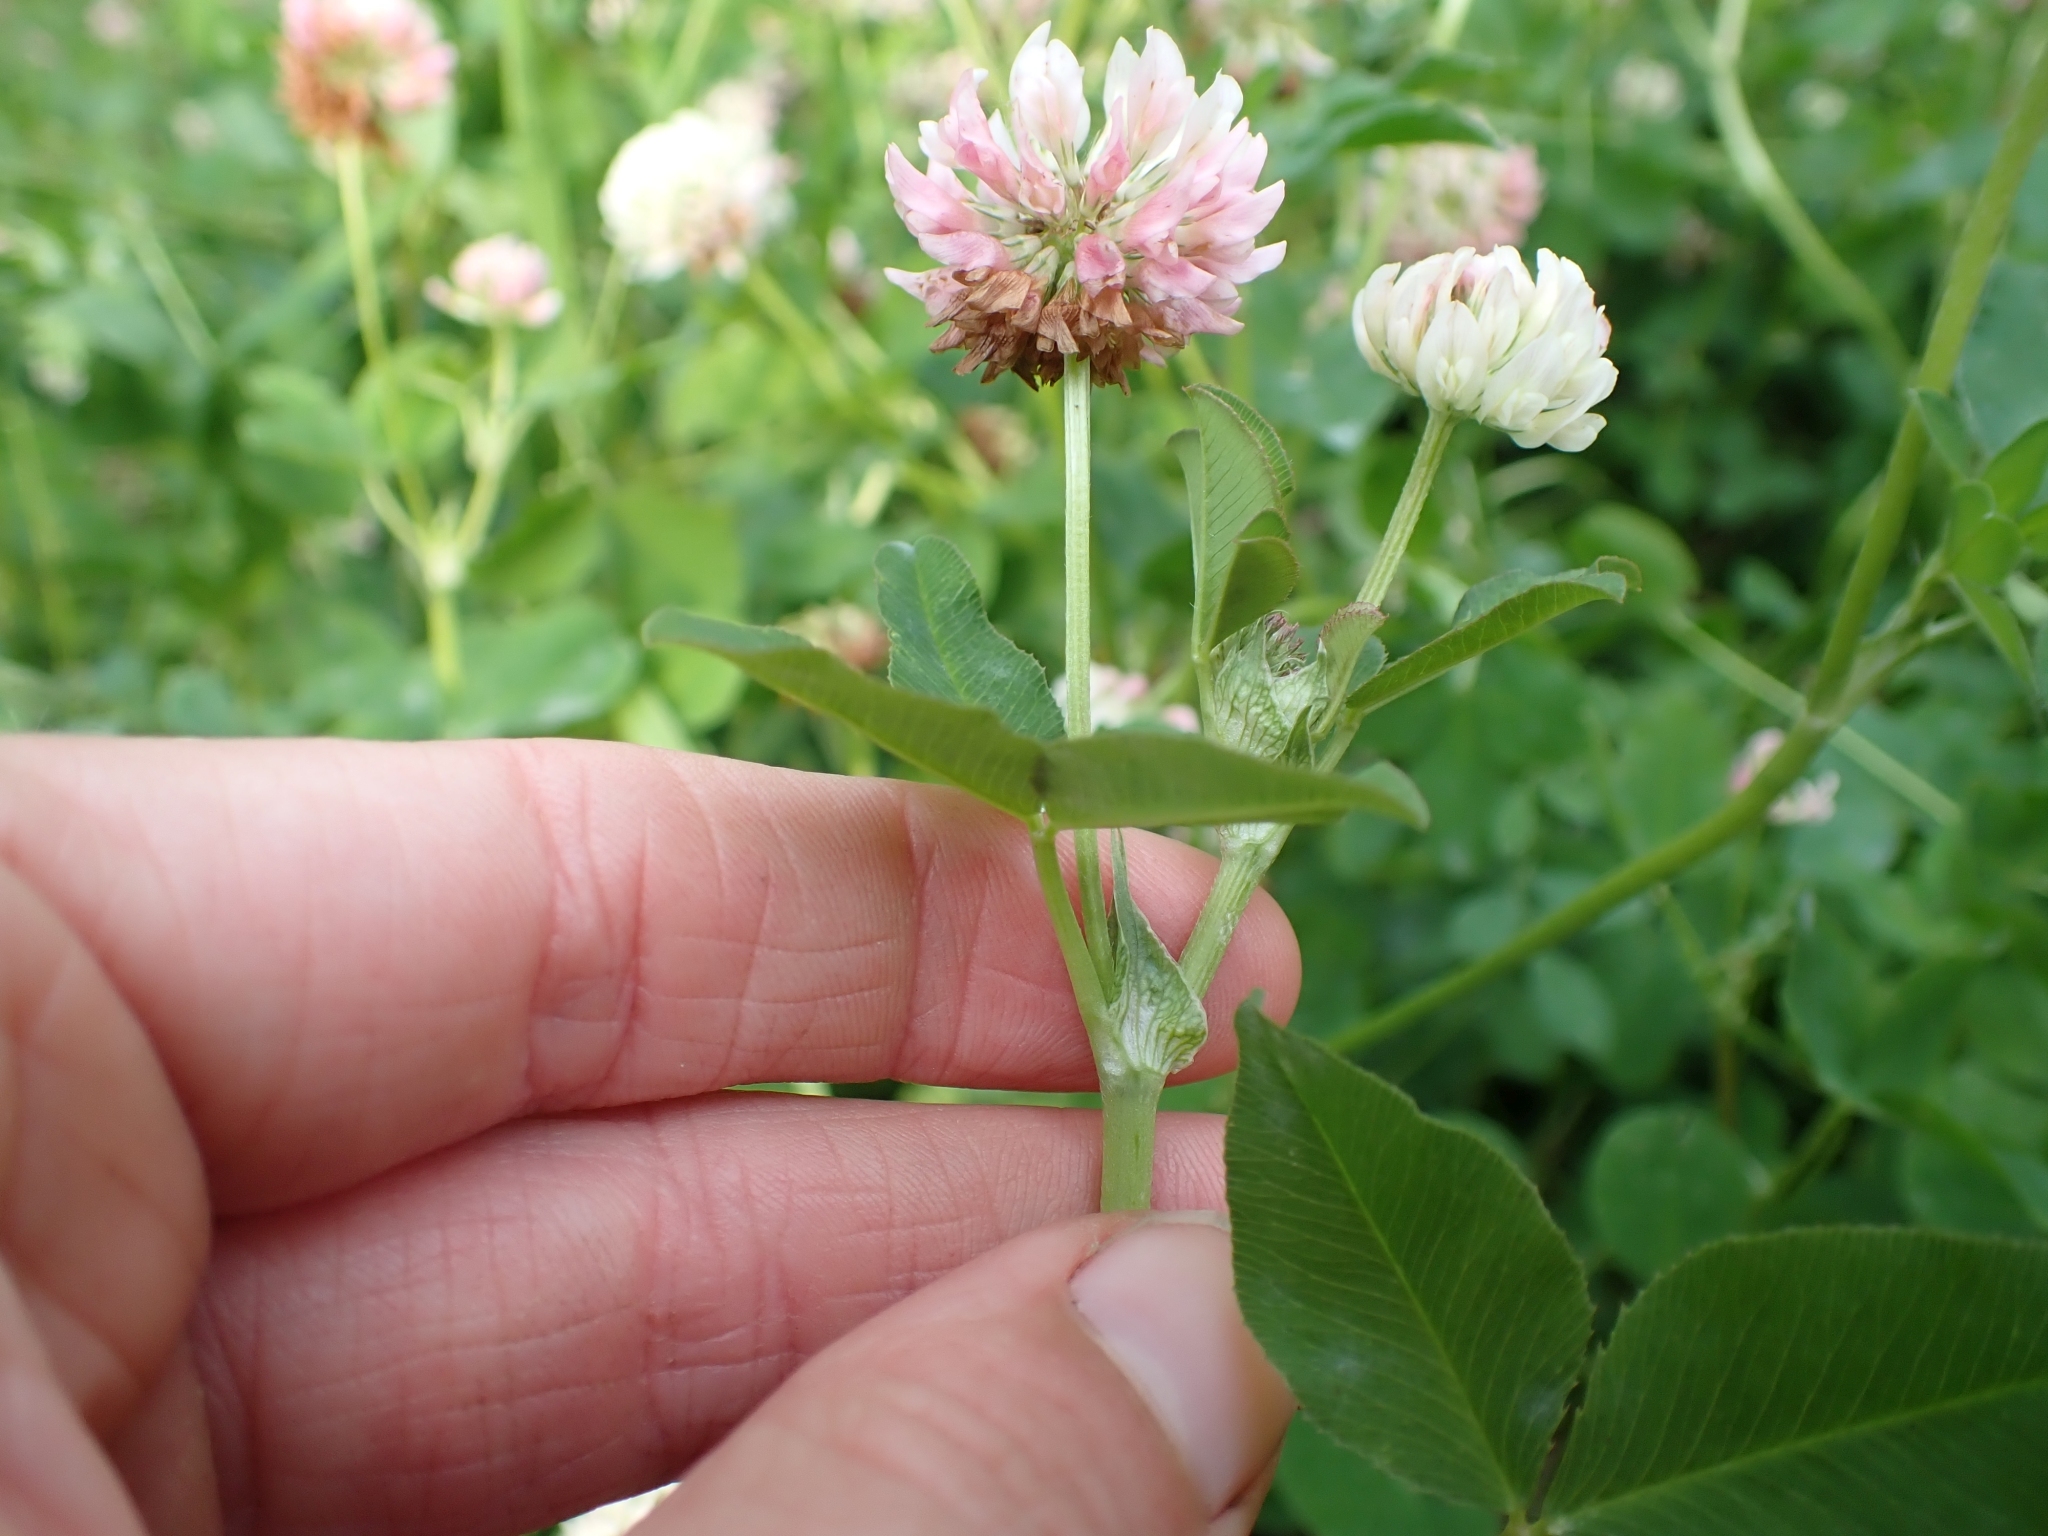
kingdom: Plantae
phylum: Tracheophyta
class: Magnoliopsida
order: Fabales
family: Fabaceae
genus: Trifolium
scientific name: Trifolium hybridum
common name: Alsike clover
